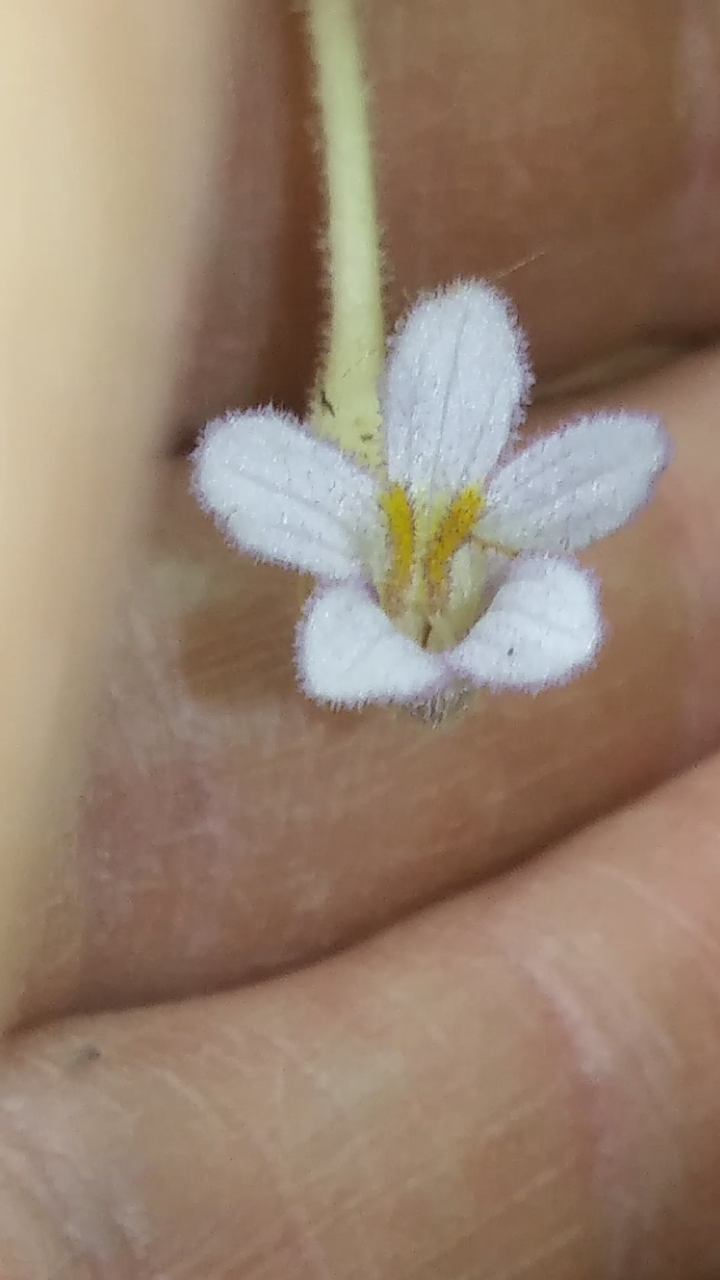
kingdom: Plantae
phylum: Tracheophyta
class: Magnoliopsida
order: Lamiales
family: Orobanchaceae
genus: Aphyllon
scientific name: Aphyllon uniflorum
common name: One-flowered broomrape
